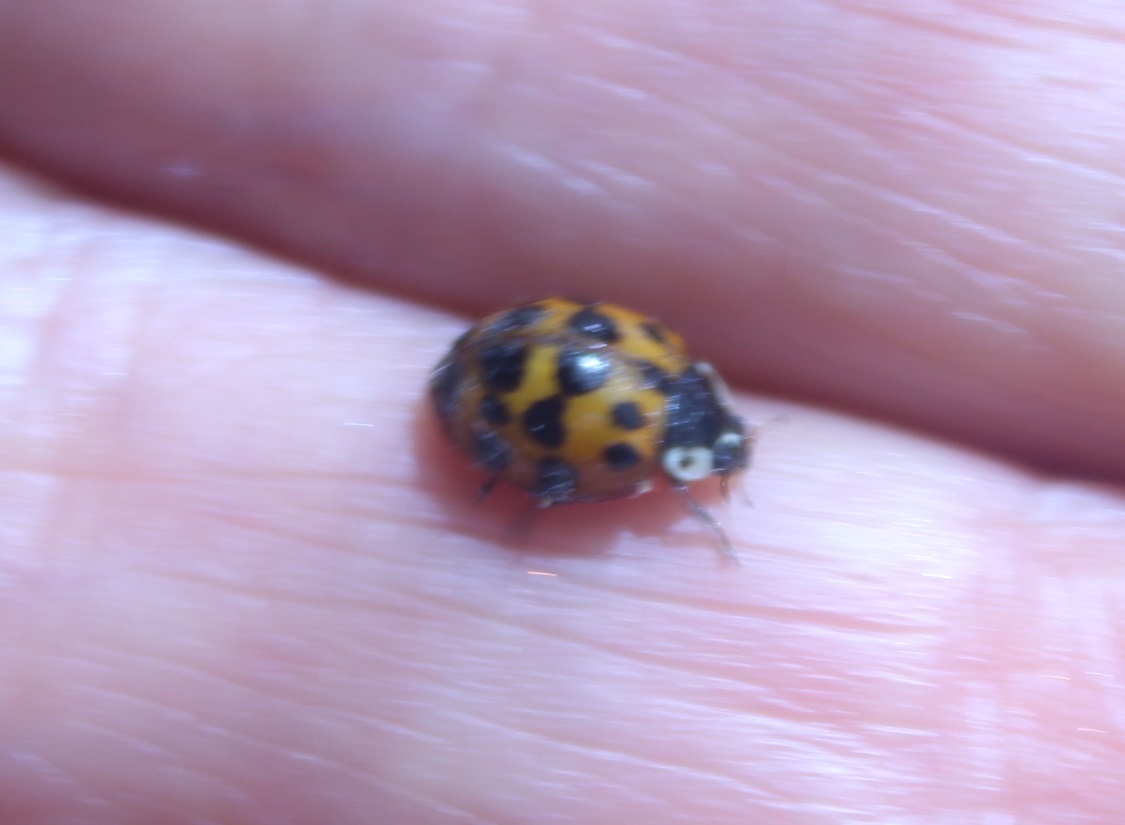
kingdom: Animalia
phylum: Arthropoda
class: Insecta
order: Coleoptera
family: Coccinellidae
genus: Harmonia
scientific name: Harmonia axyridis
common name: Harlequin ladybird
